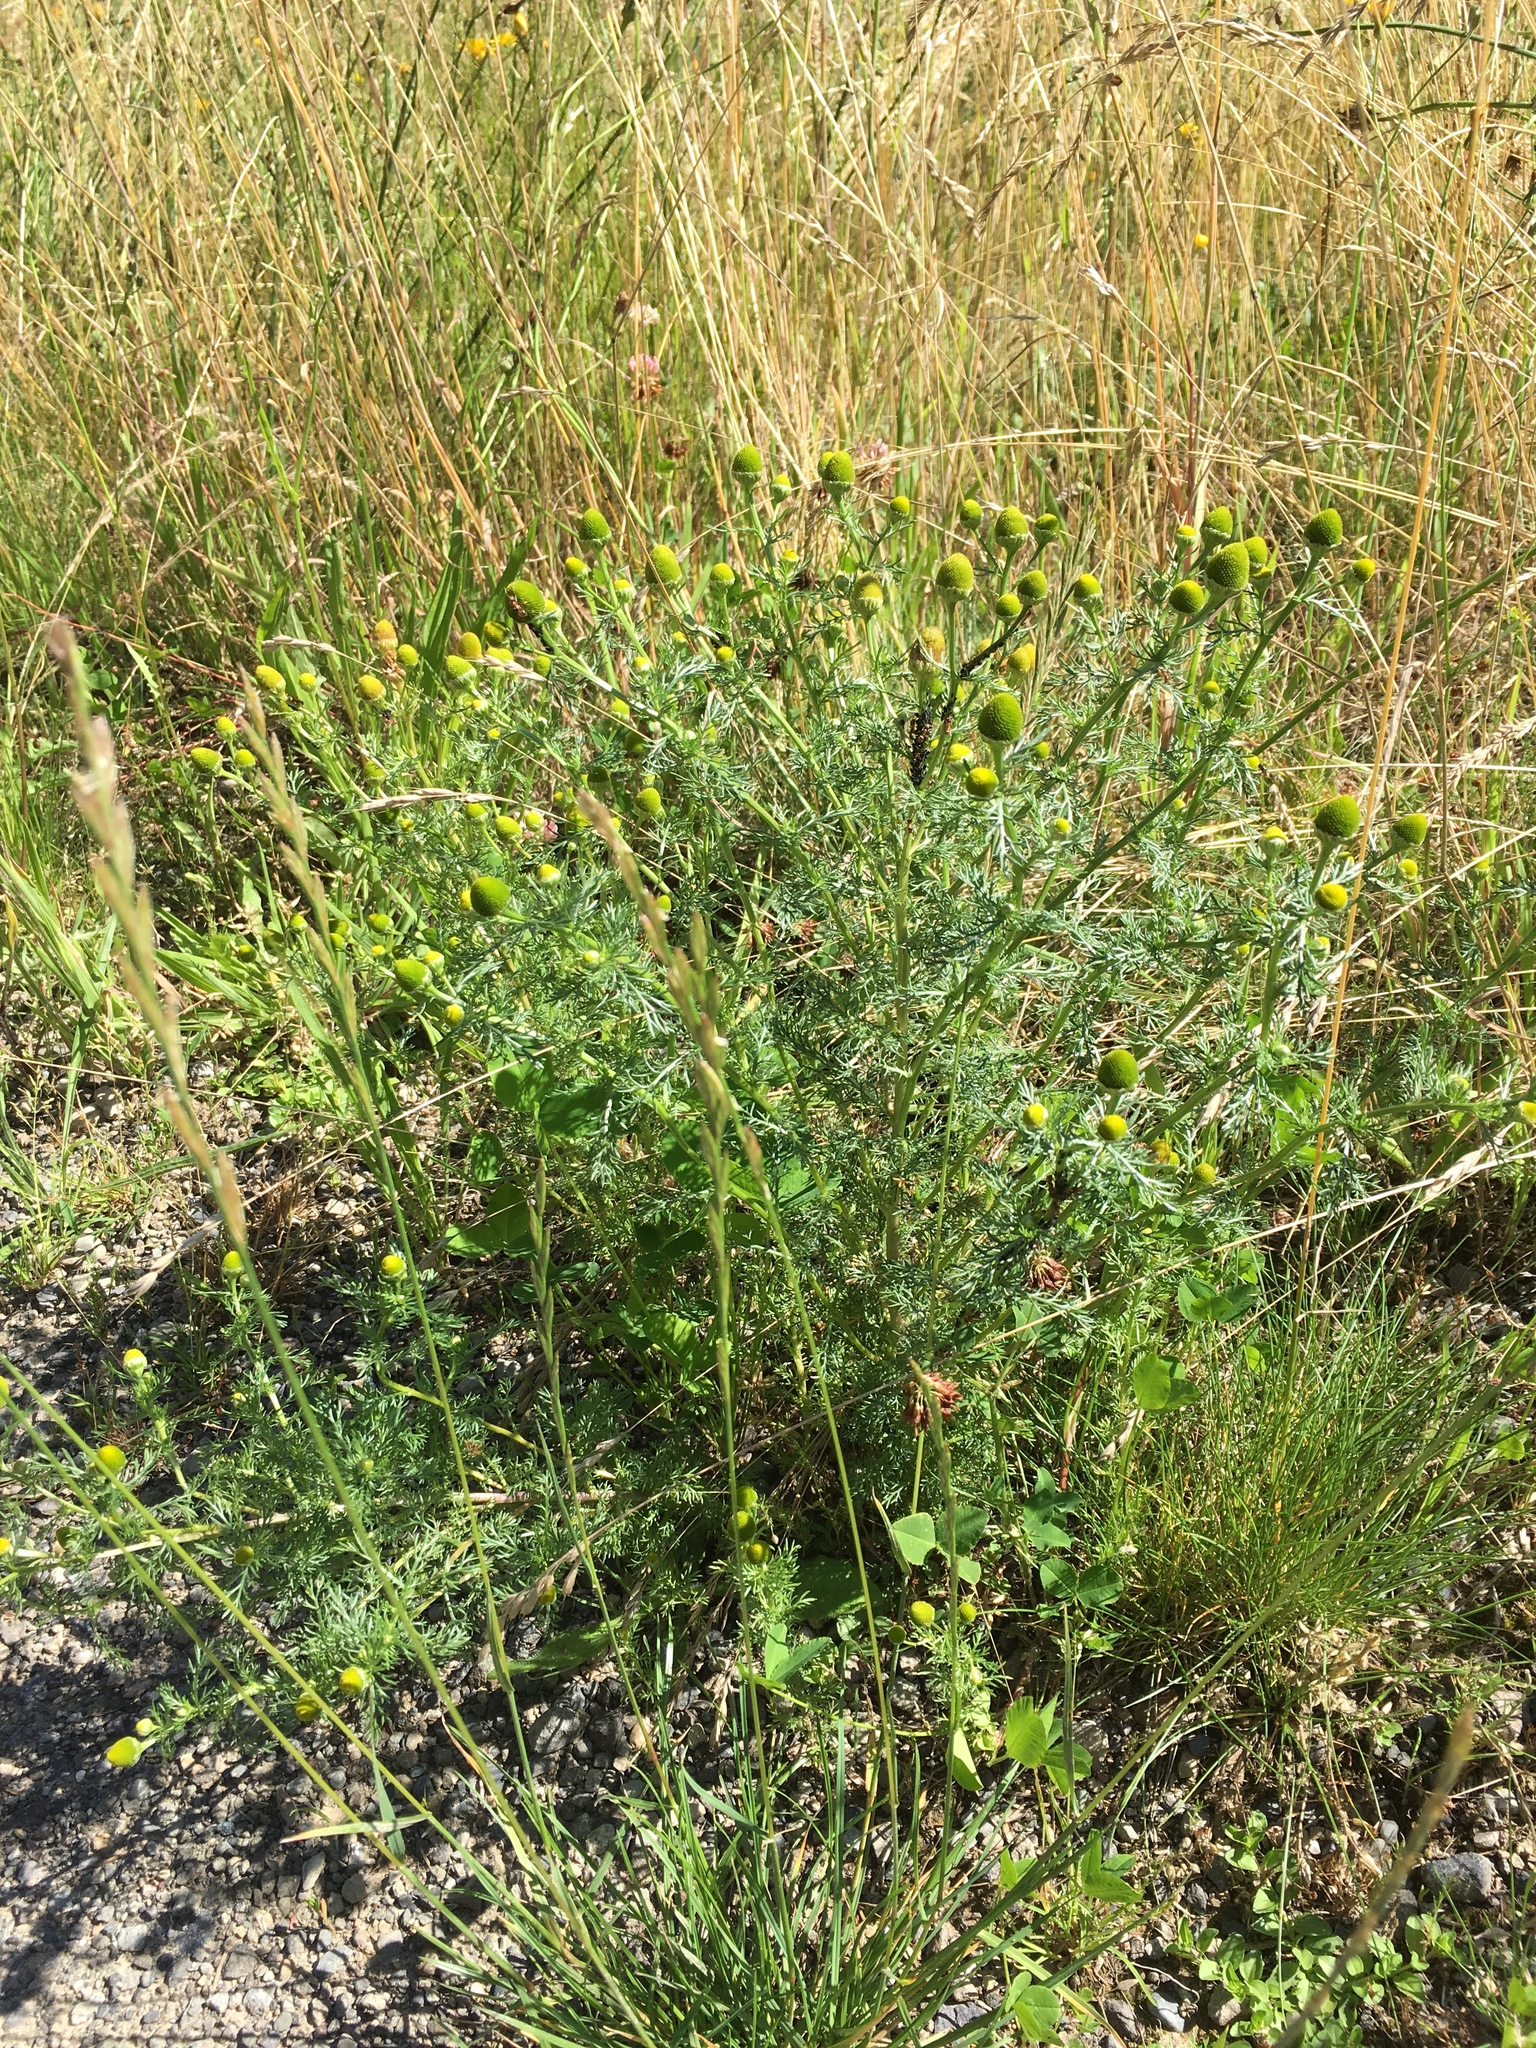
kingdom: Plantae
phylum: Tracheophyta
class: Magnoliopsida
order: Asterales
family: Asteraceae
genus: Matricaria
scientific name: Matricaria discoidea
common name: Disc mayweed
